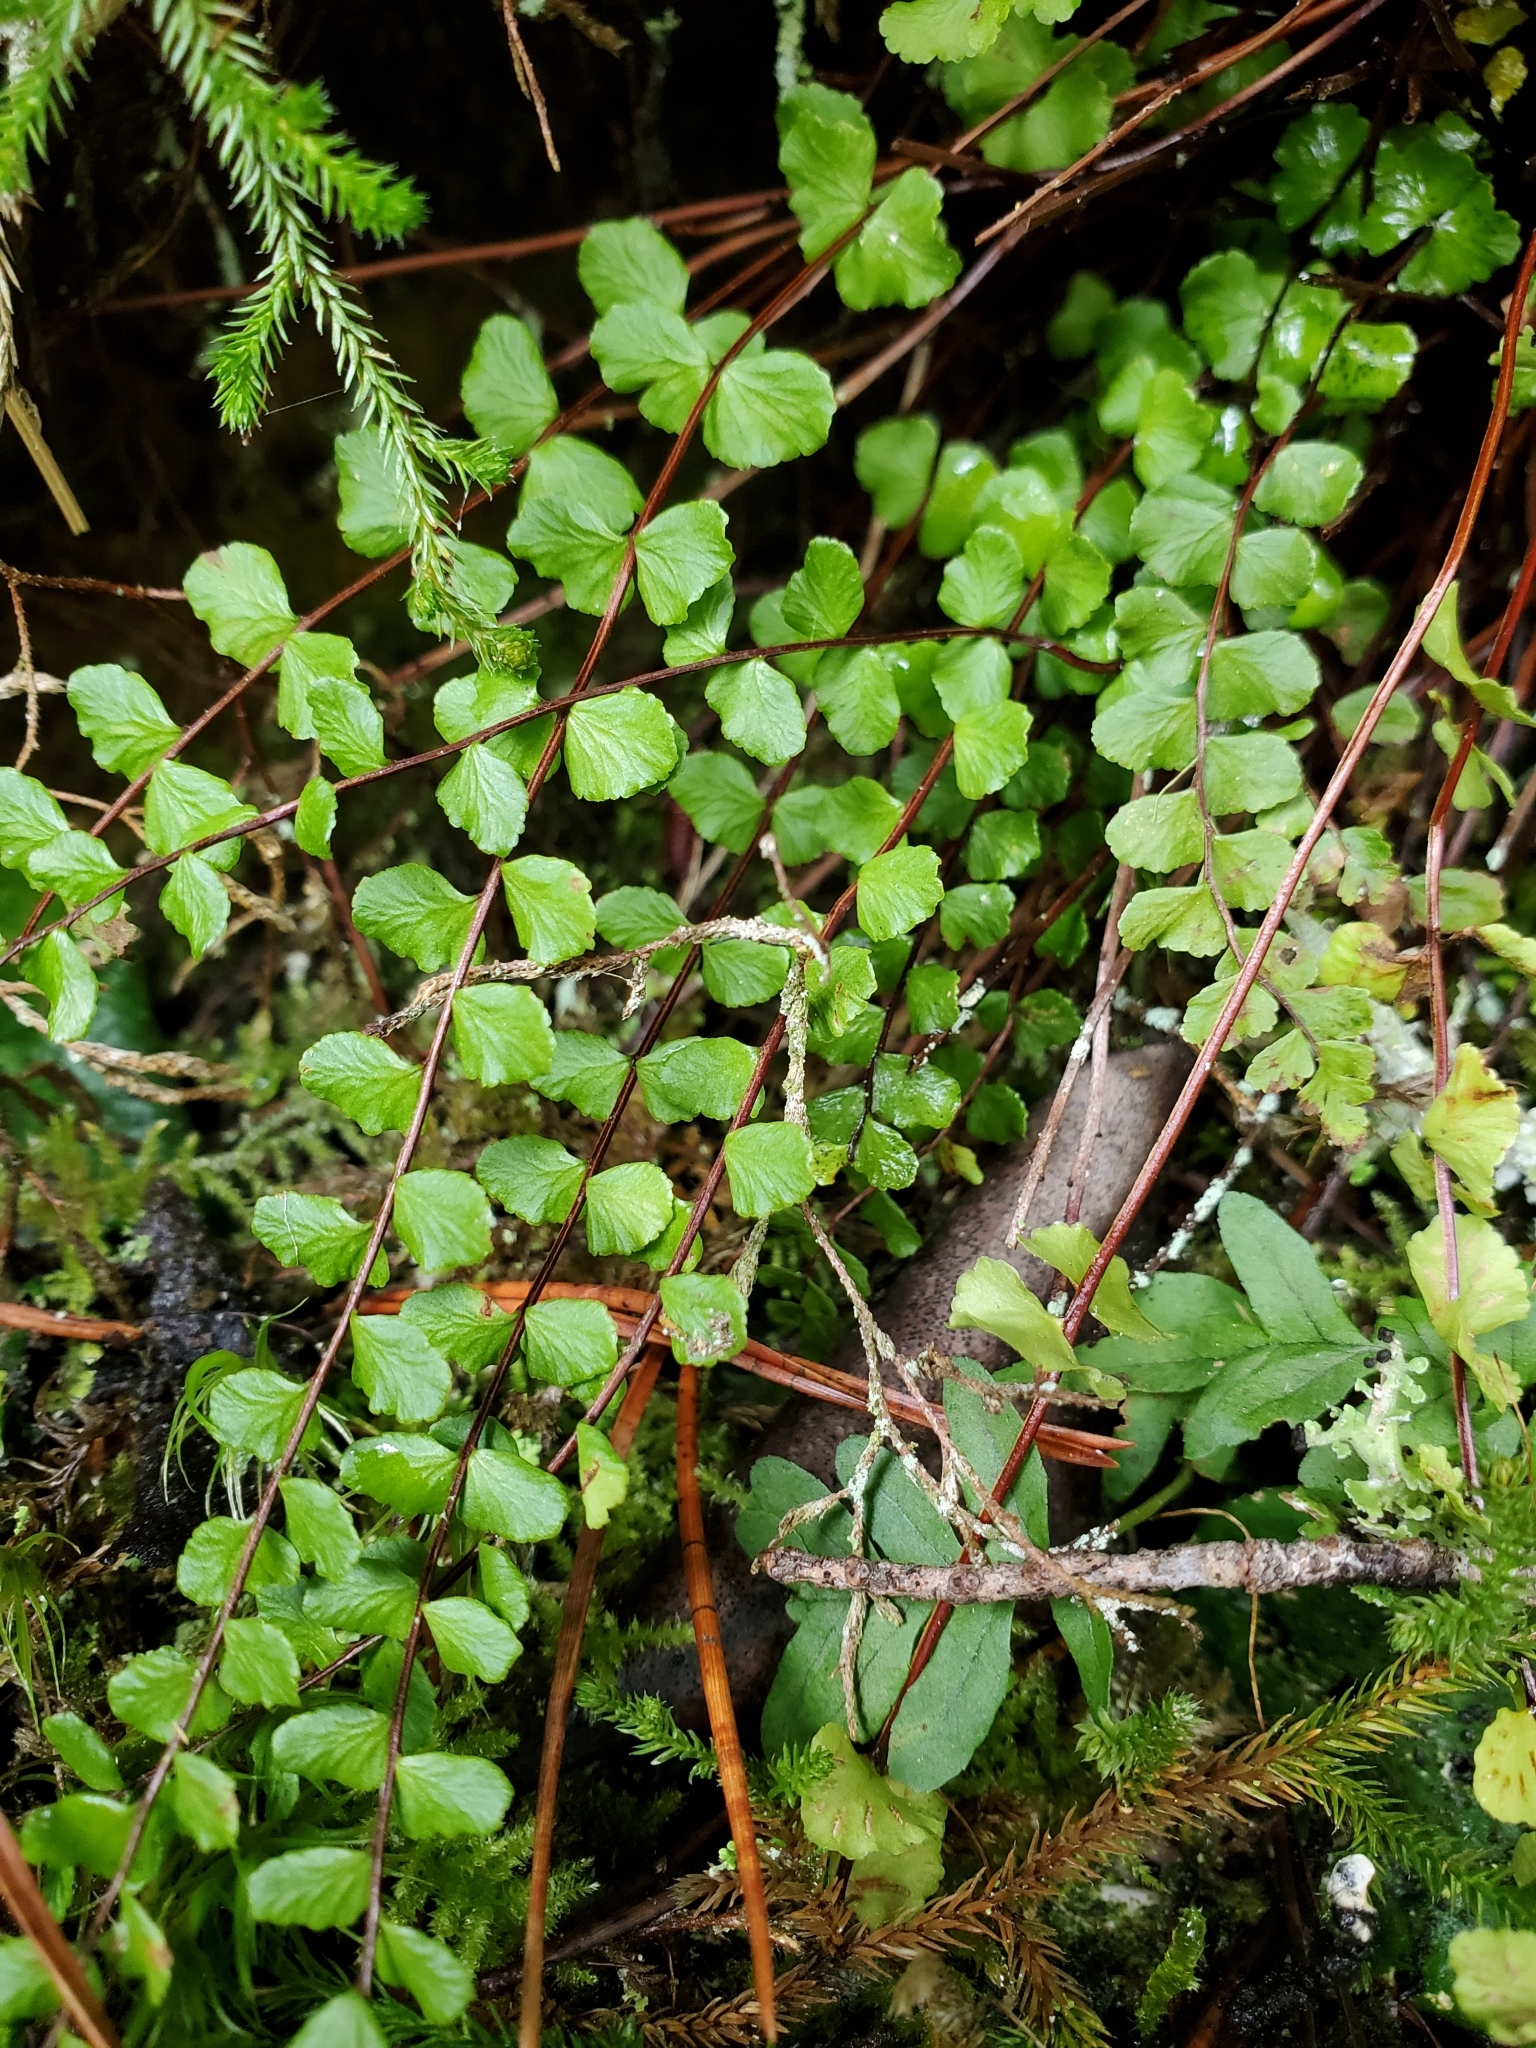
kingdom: Plantae
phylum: Tracheophyta
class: Polypodiopsida
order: Polypodiales
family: Aspleniaceae
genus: Asplenium
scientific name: Asplenium trichomanes
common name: Maidenhair spleenwort
